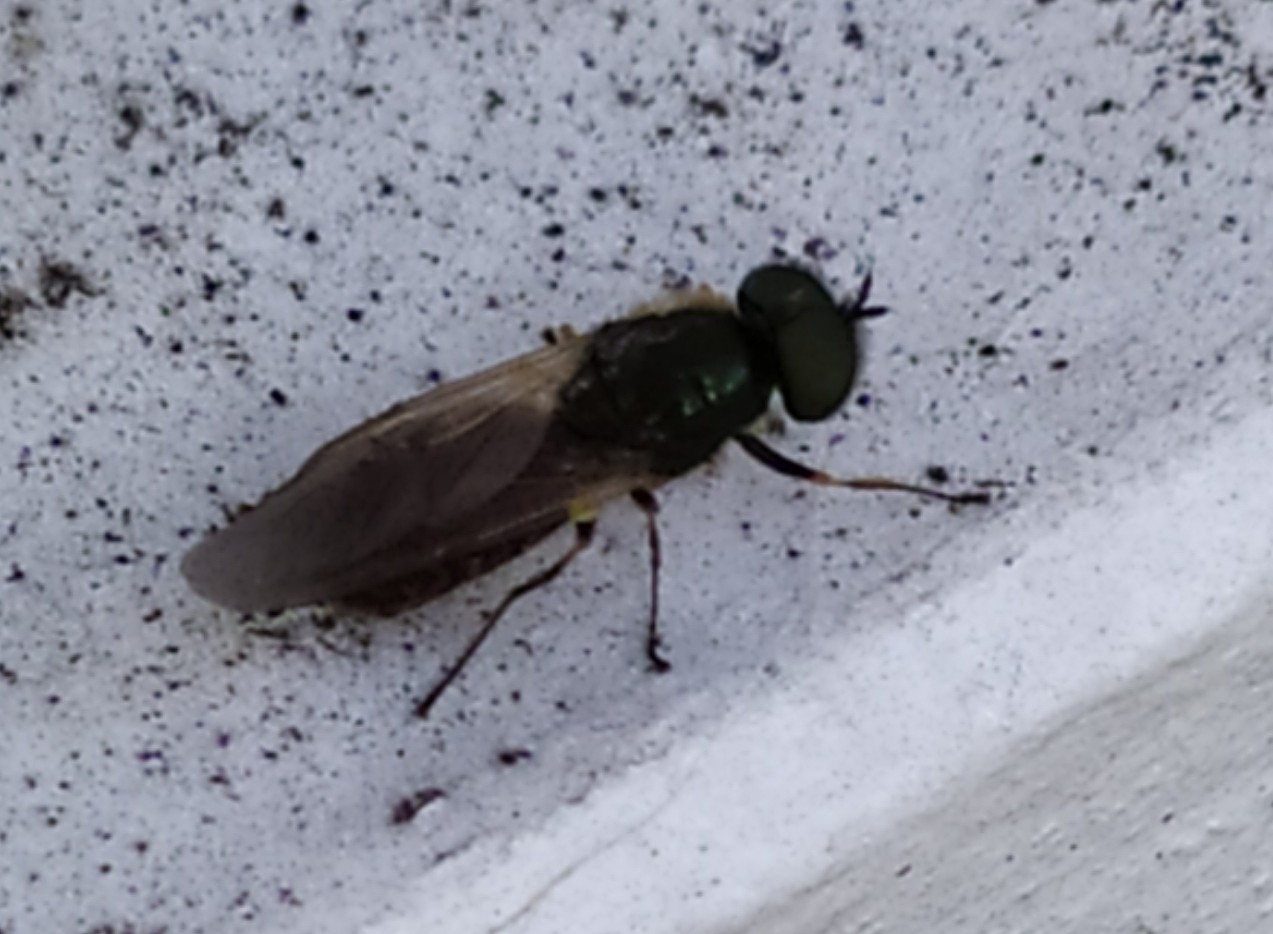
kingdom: Animalia
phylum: Arthropoda
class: Insecta
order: Diptera
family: Stratiomyidae
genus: Chloromyia
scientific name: Chloromyia formosa
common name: Soldier fly
